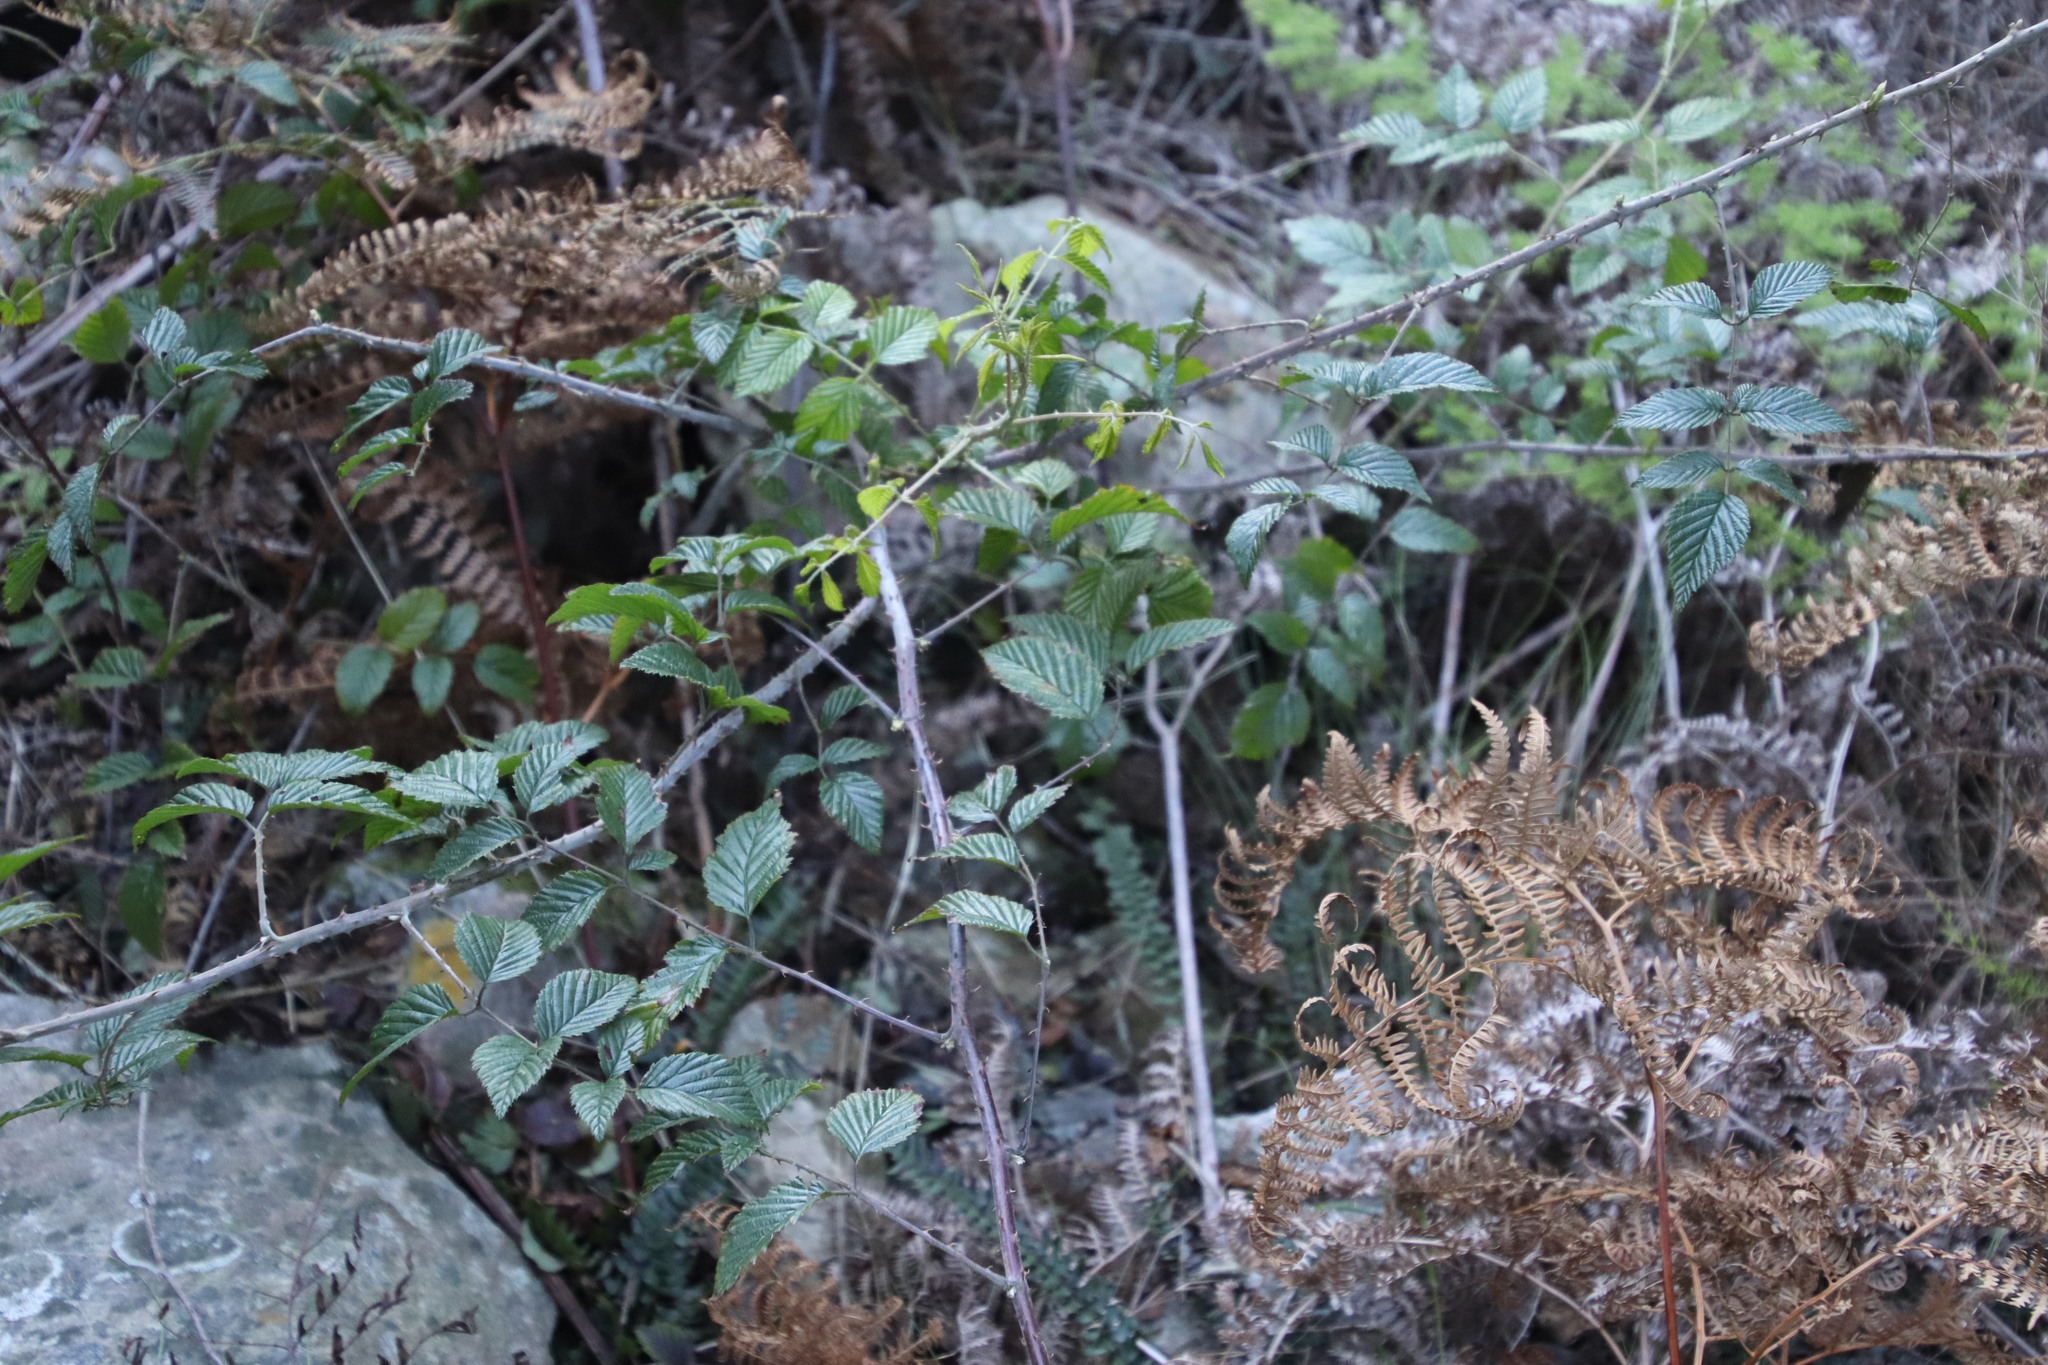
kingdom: Plantae
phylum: Tracheophyta
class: Magnoliopsida
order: Rosales
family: Rosaceae
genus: Rubus
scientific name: Rubus pinnatus
